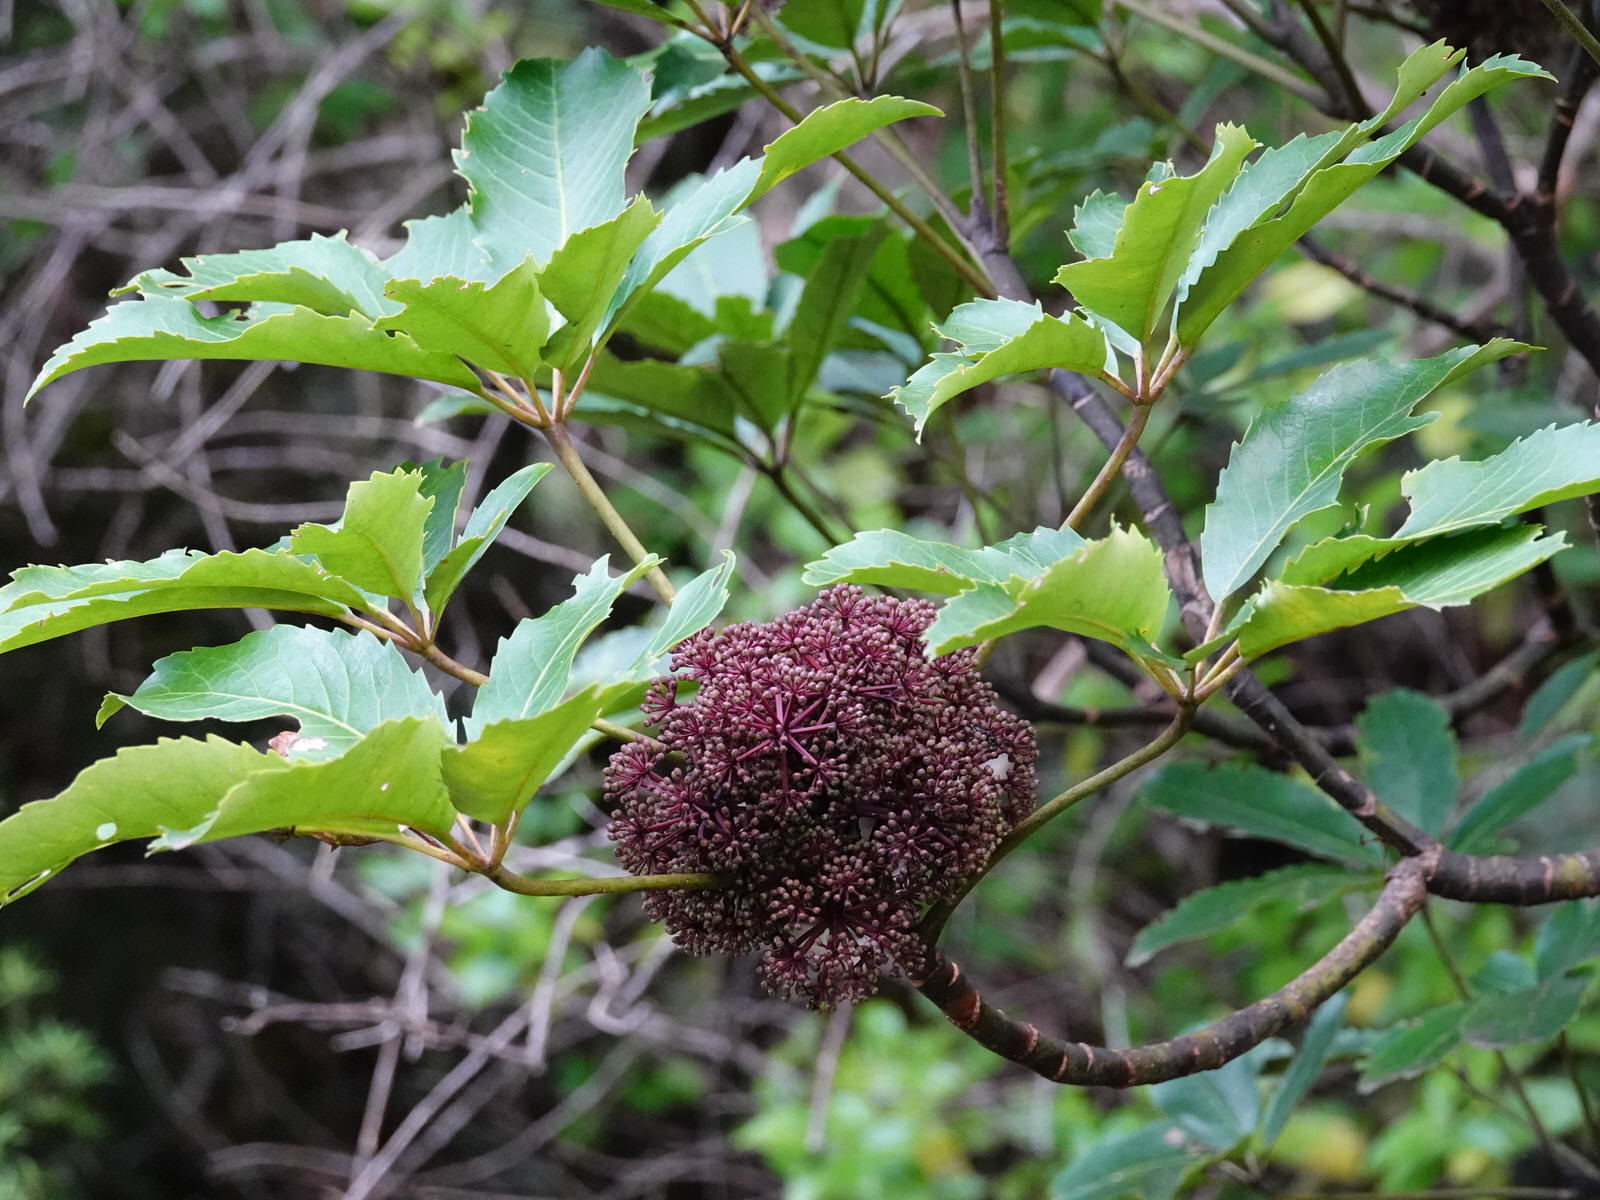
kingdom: Plantae
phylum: Tracheophyta
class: Magnoliopsida
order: Apiales
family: Araliaceae
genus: Neopanax
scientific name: Neopanax arboreus
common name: Five-fingers
